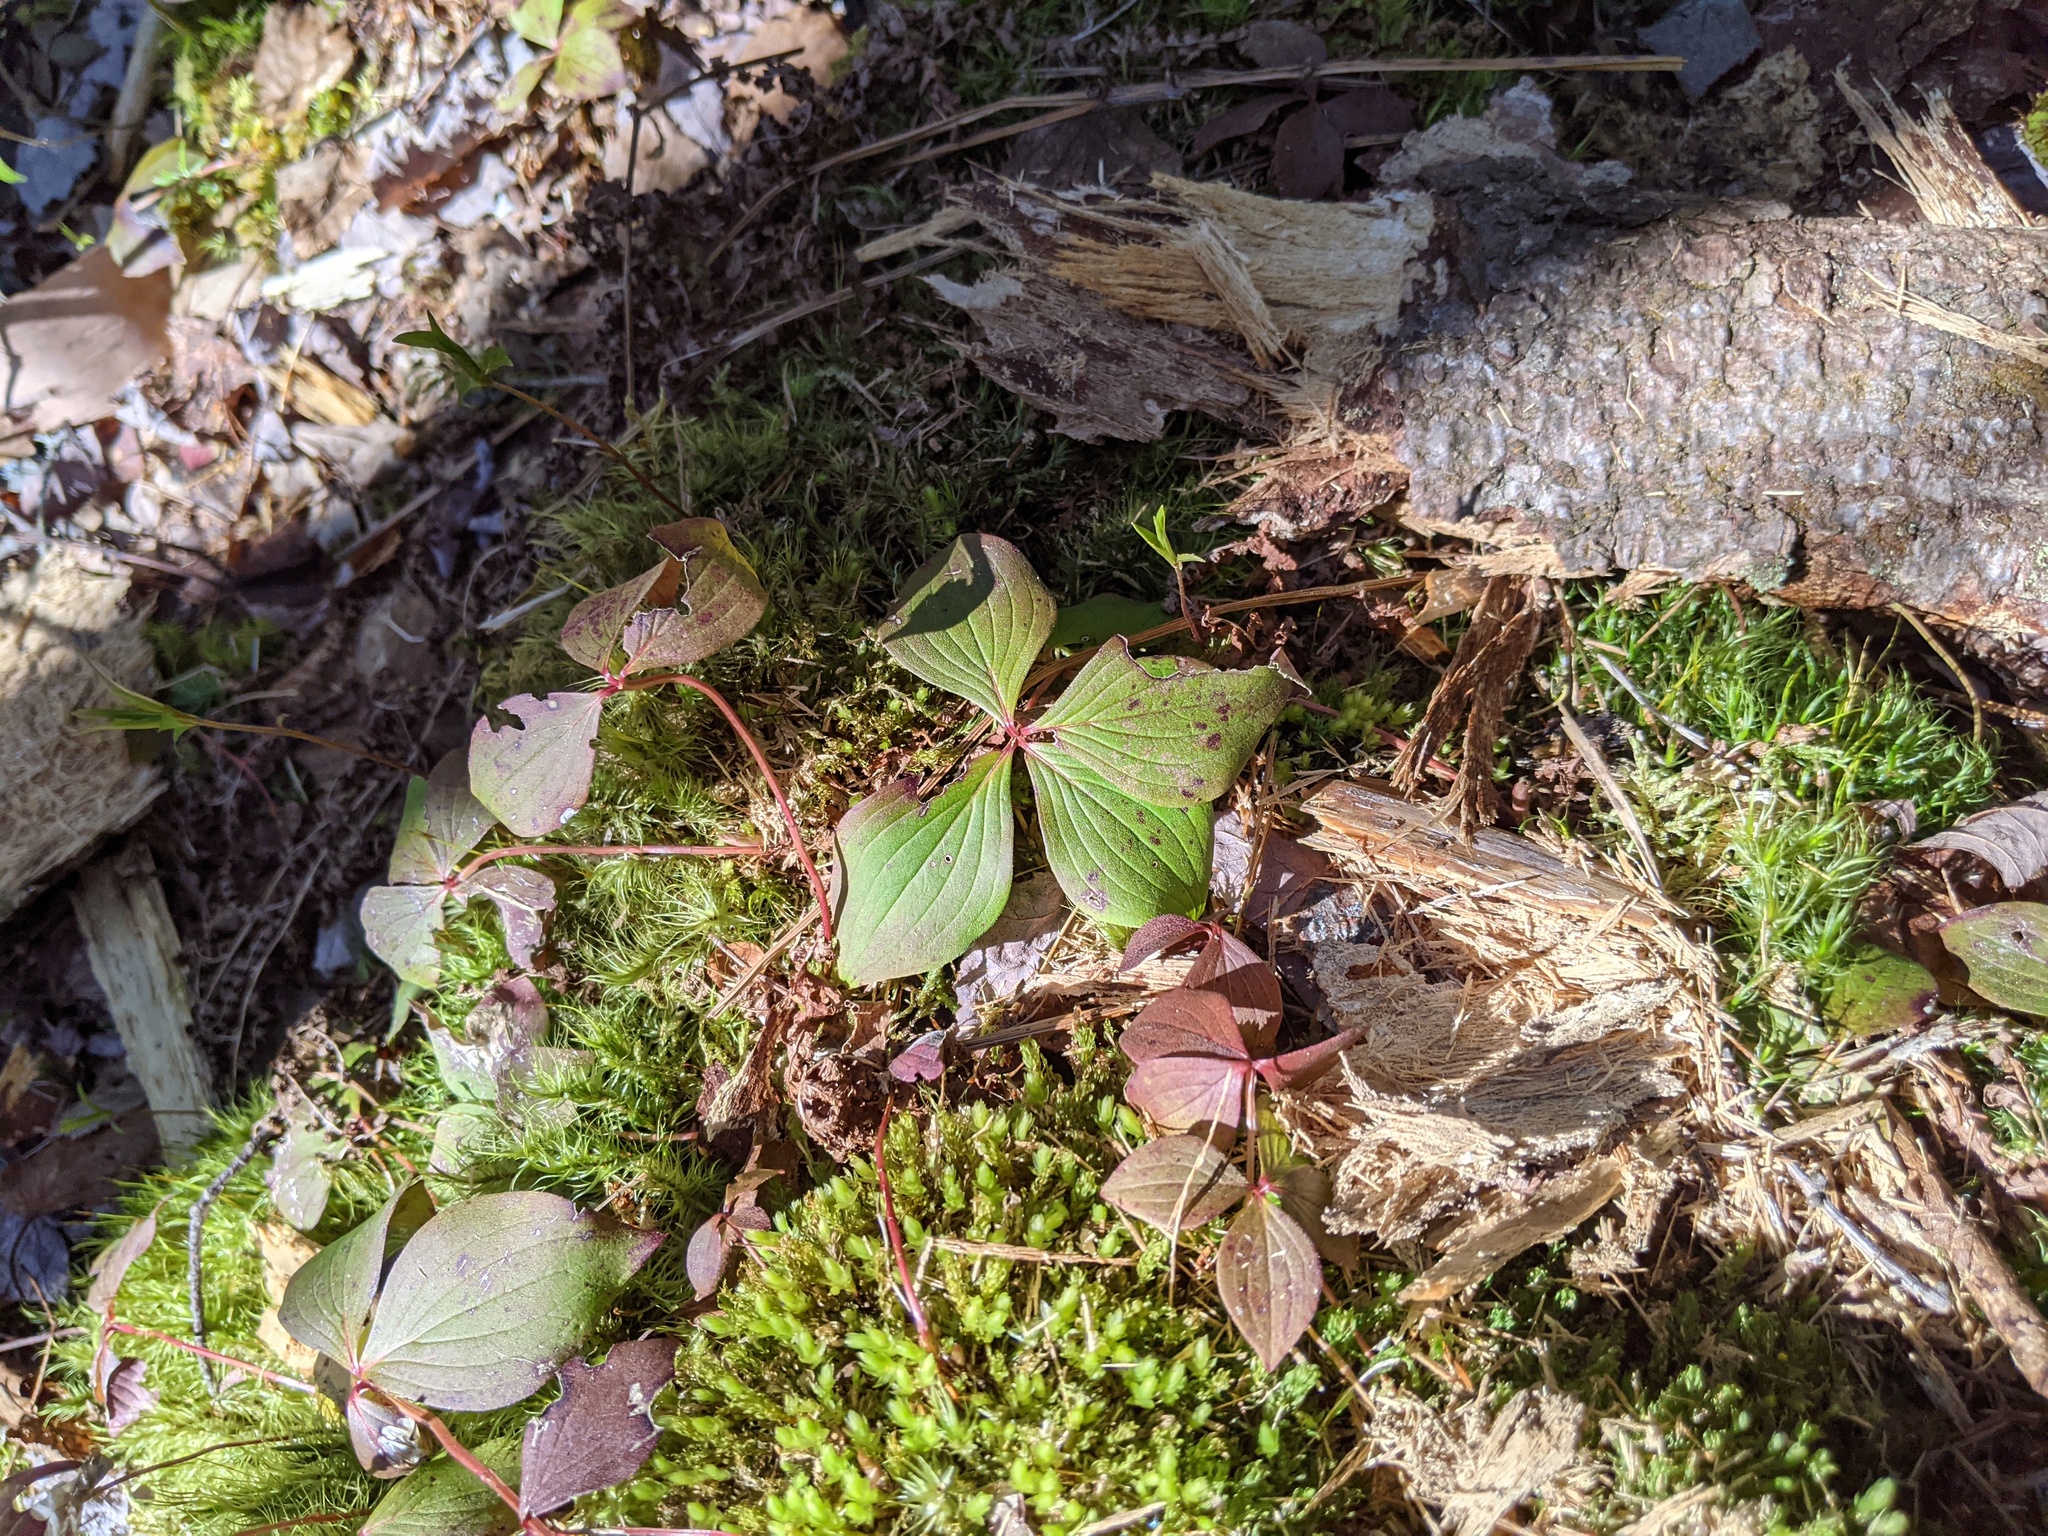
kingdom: Plantae
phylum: Tracheophyta
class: Magnoliopsida
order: Cornales
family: Cornaceae
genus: Cornus
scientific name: Cornus canadensis
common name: Creeping dogwood
